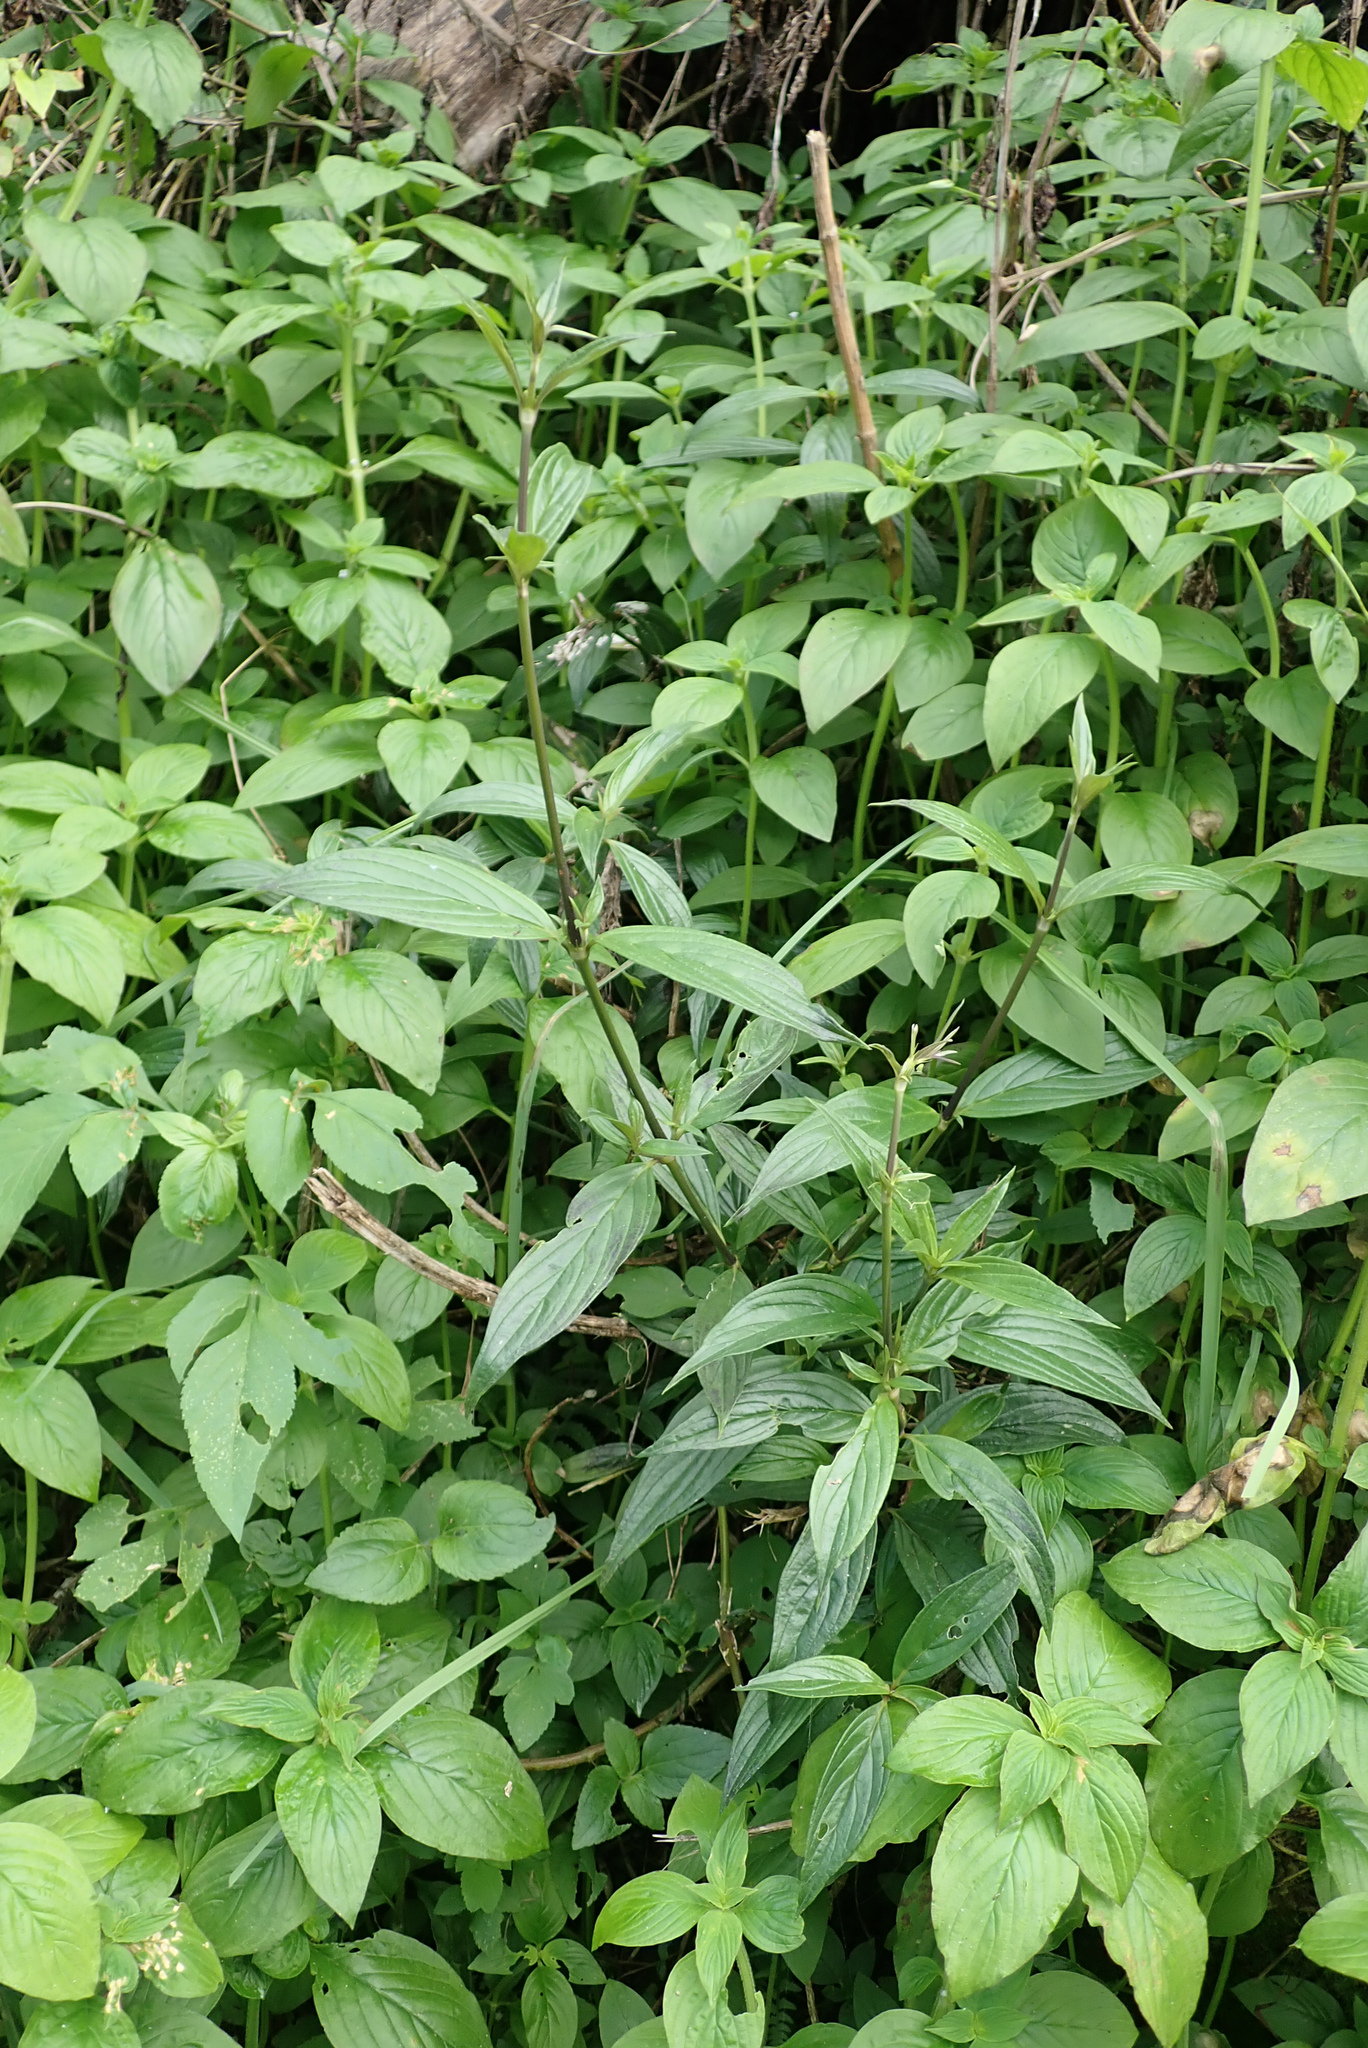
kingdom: Plantae
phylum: Tracheophyta
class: Magnoliopsida
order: Gentianales
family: Rubiaceae
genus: Dimetia
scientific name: Dimetia hedyotidea
